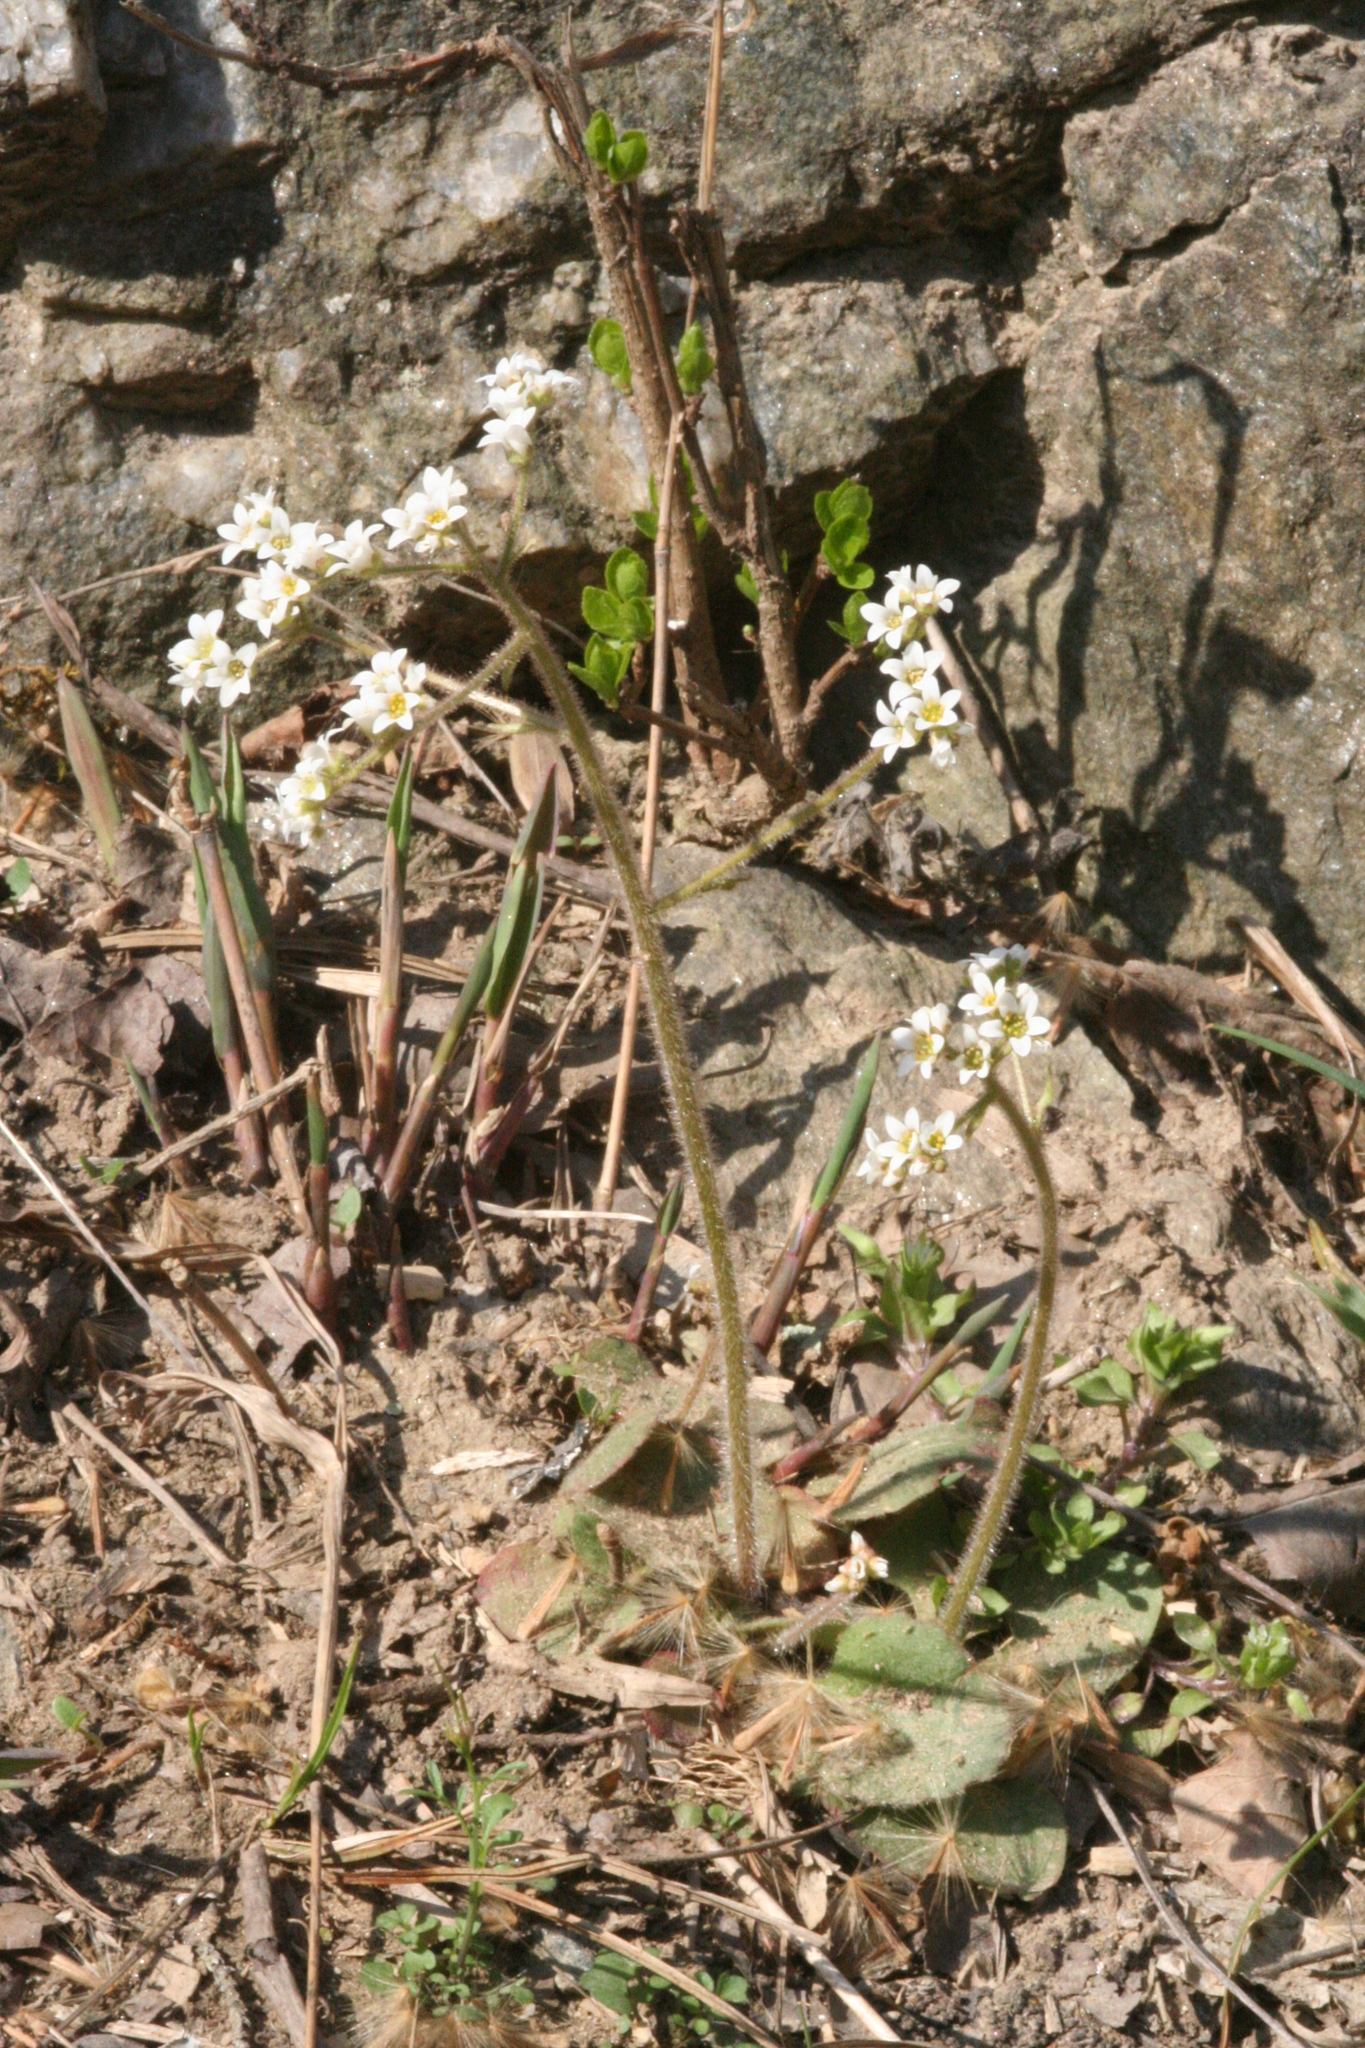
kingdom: Plantae
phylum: Tracheophyta
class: Magnoliopsida
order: Saxifragales
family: Saxifragaceae
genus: Micranthes
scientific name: Micranthes virginiensis
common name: Early saxifrage
